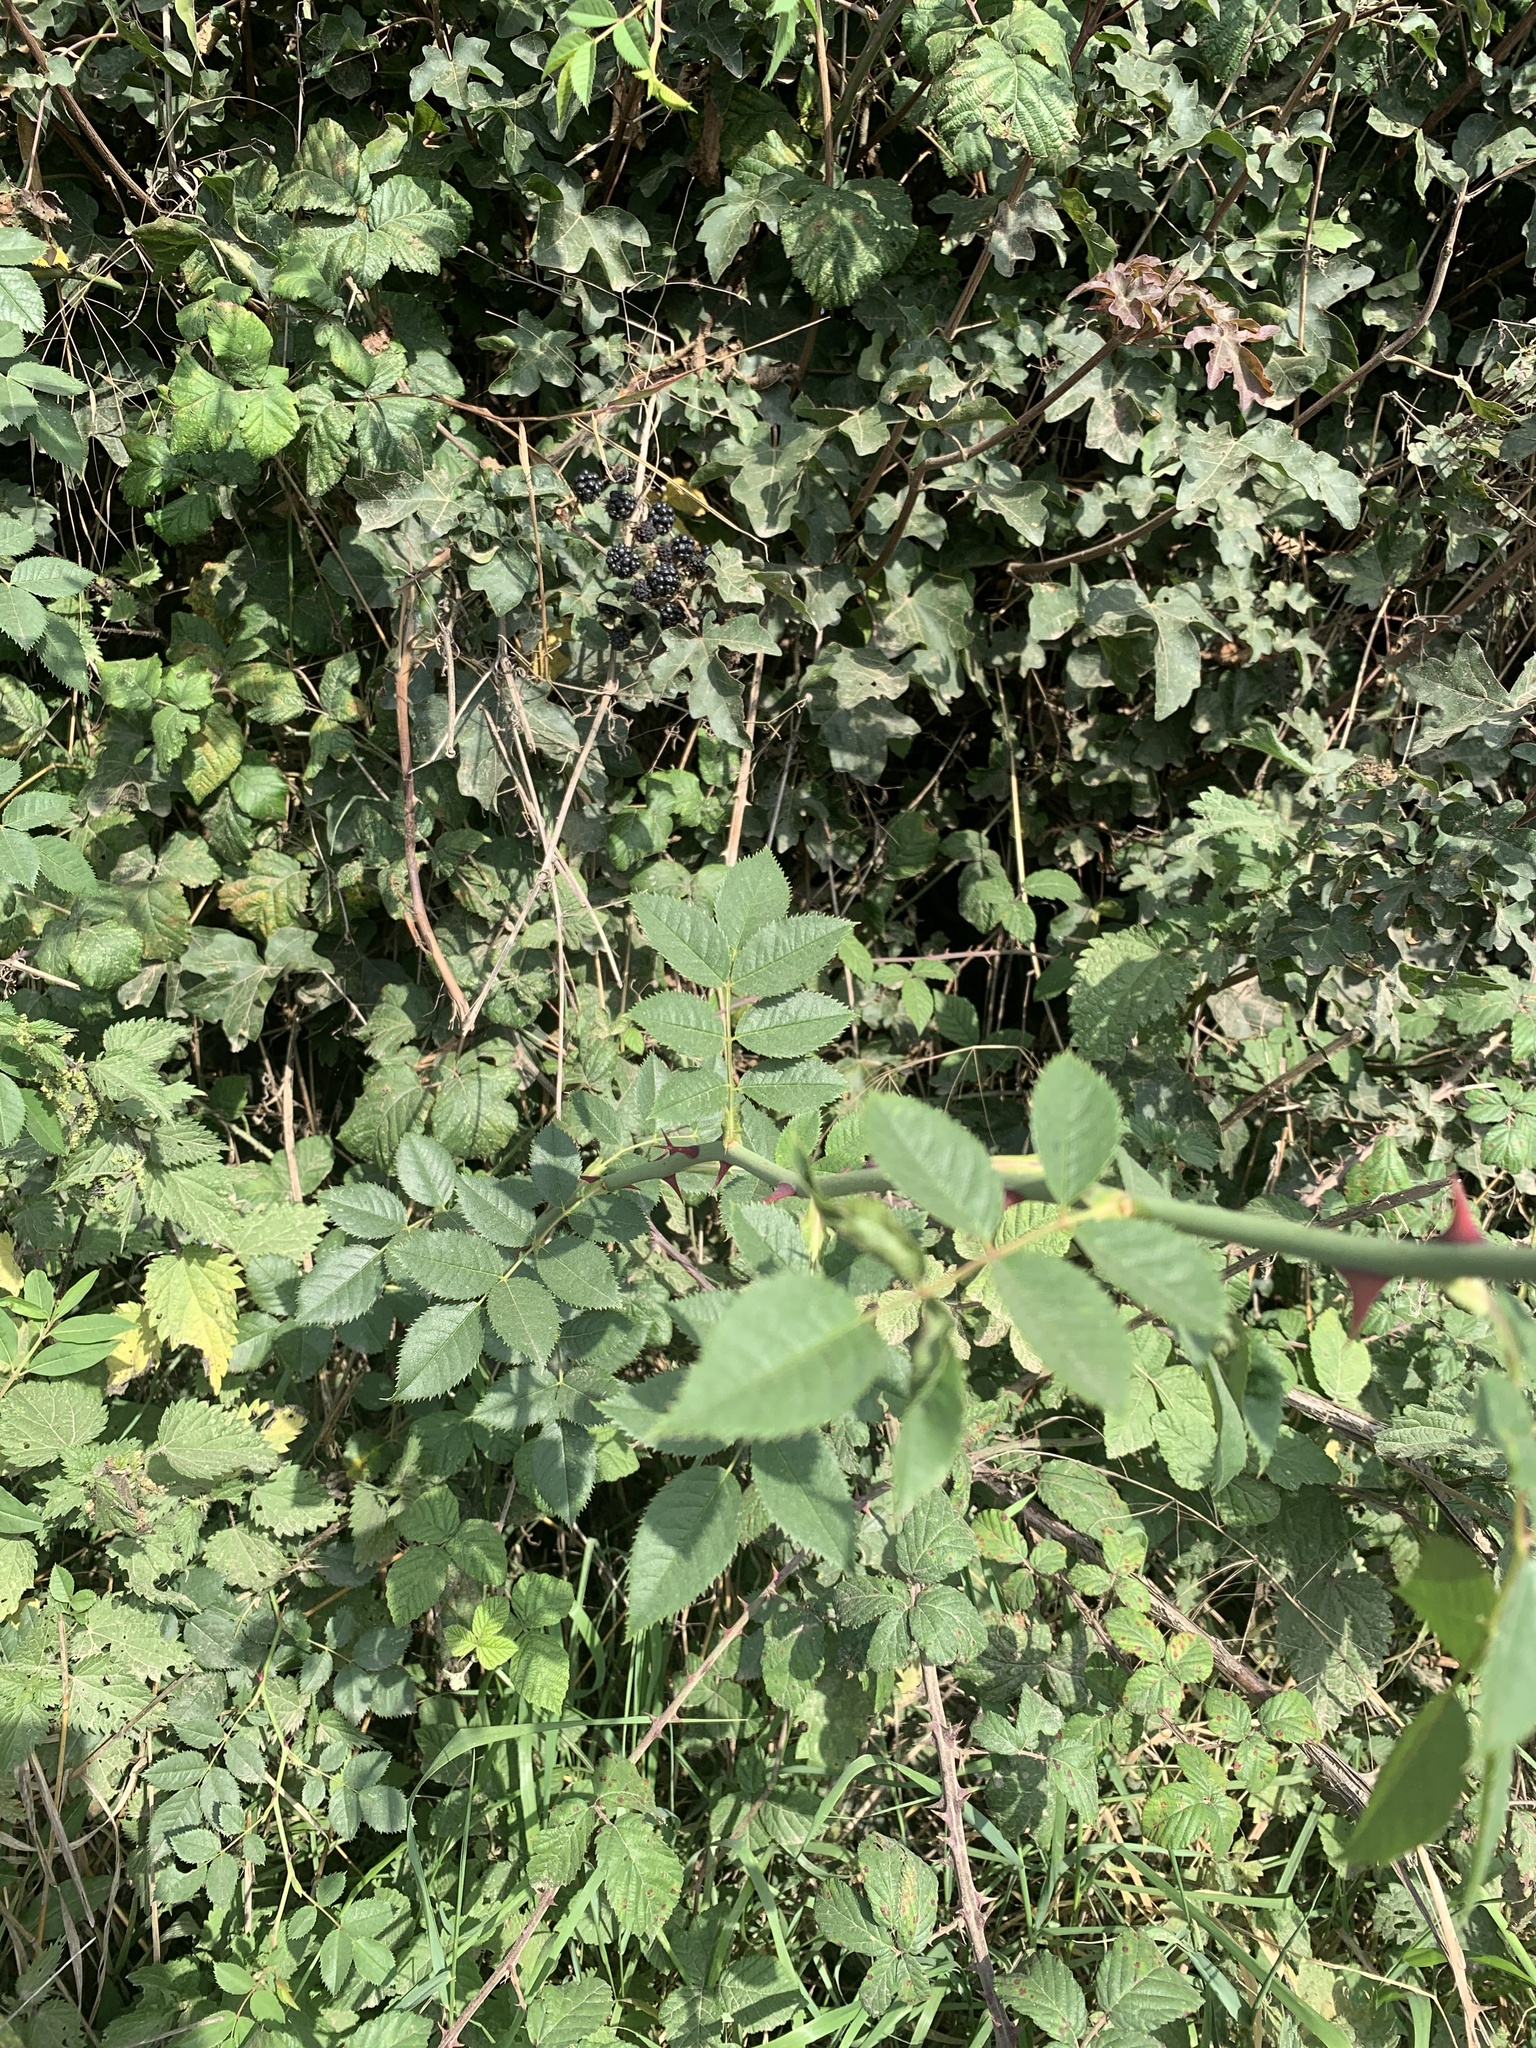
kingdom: Plantae
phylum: Tracheophyta
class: Magnoliopsida
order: Rosales
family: Rosaceae
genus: Rosa
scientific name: Rosa canina
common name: Dog rose
